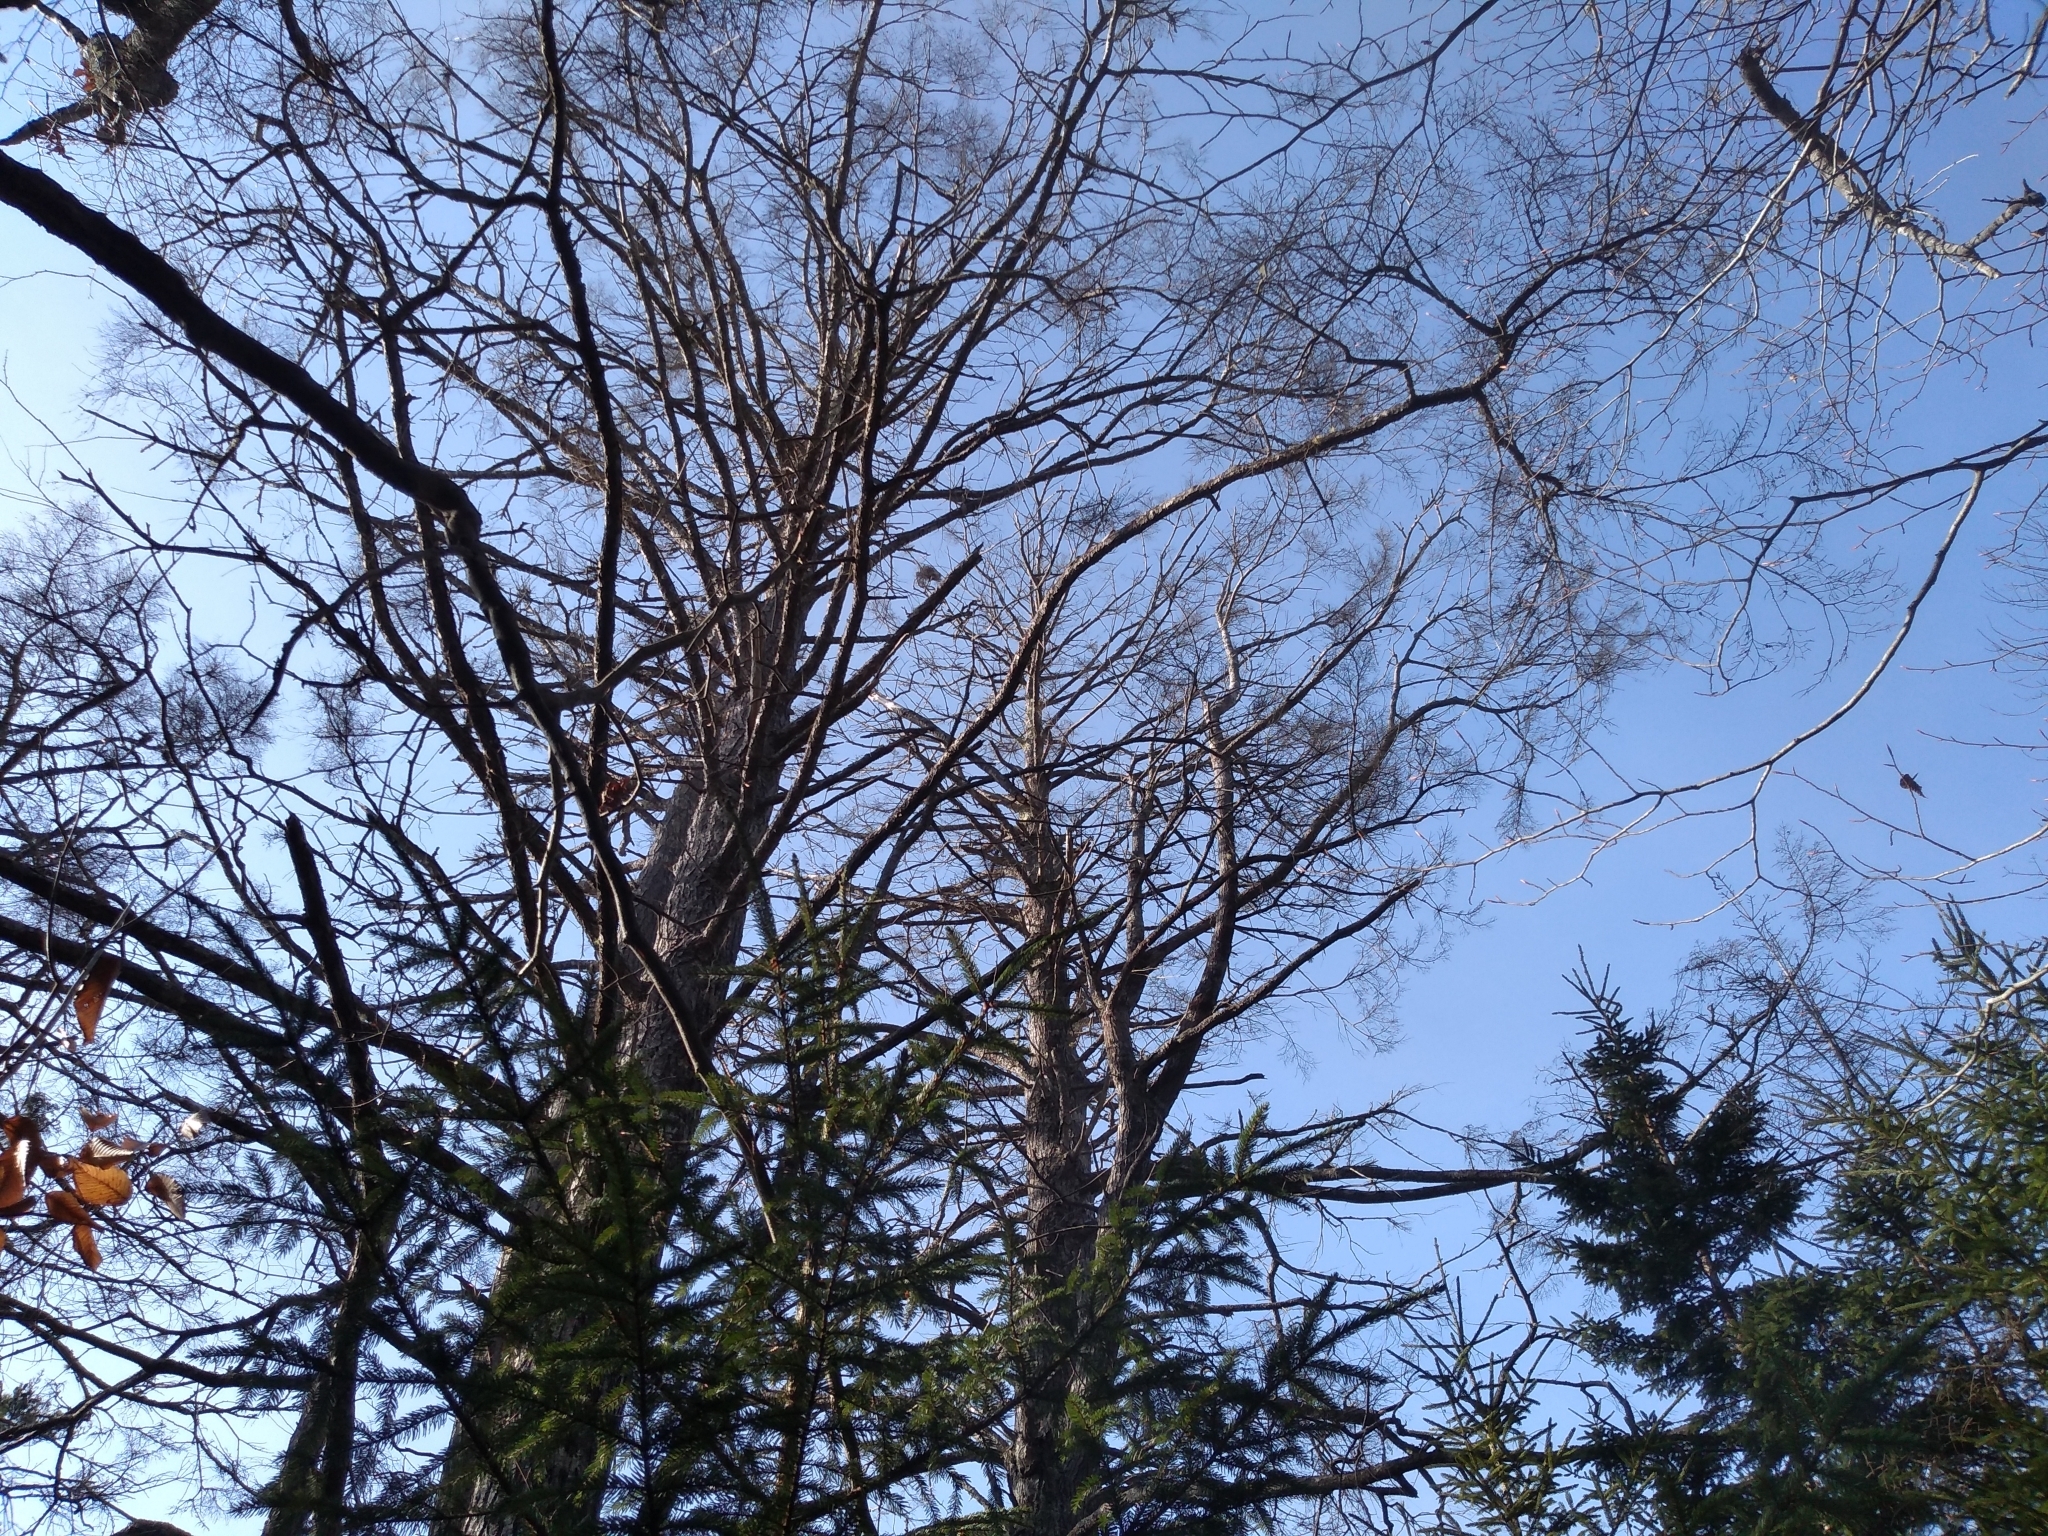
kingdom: Animalia
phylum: Arthropoda
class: Insecta
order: Hemiptera
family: Adelgidae
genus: Adelges
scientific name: Adelges tsugae
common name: Hemlock woolly adelgid
